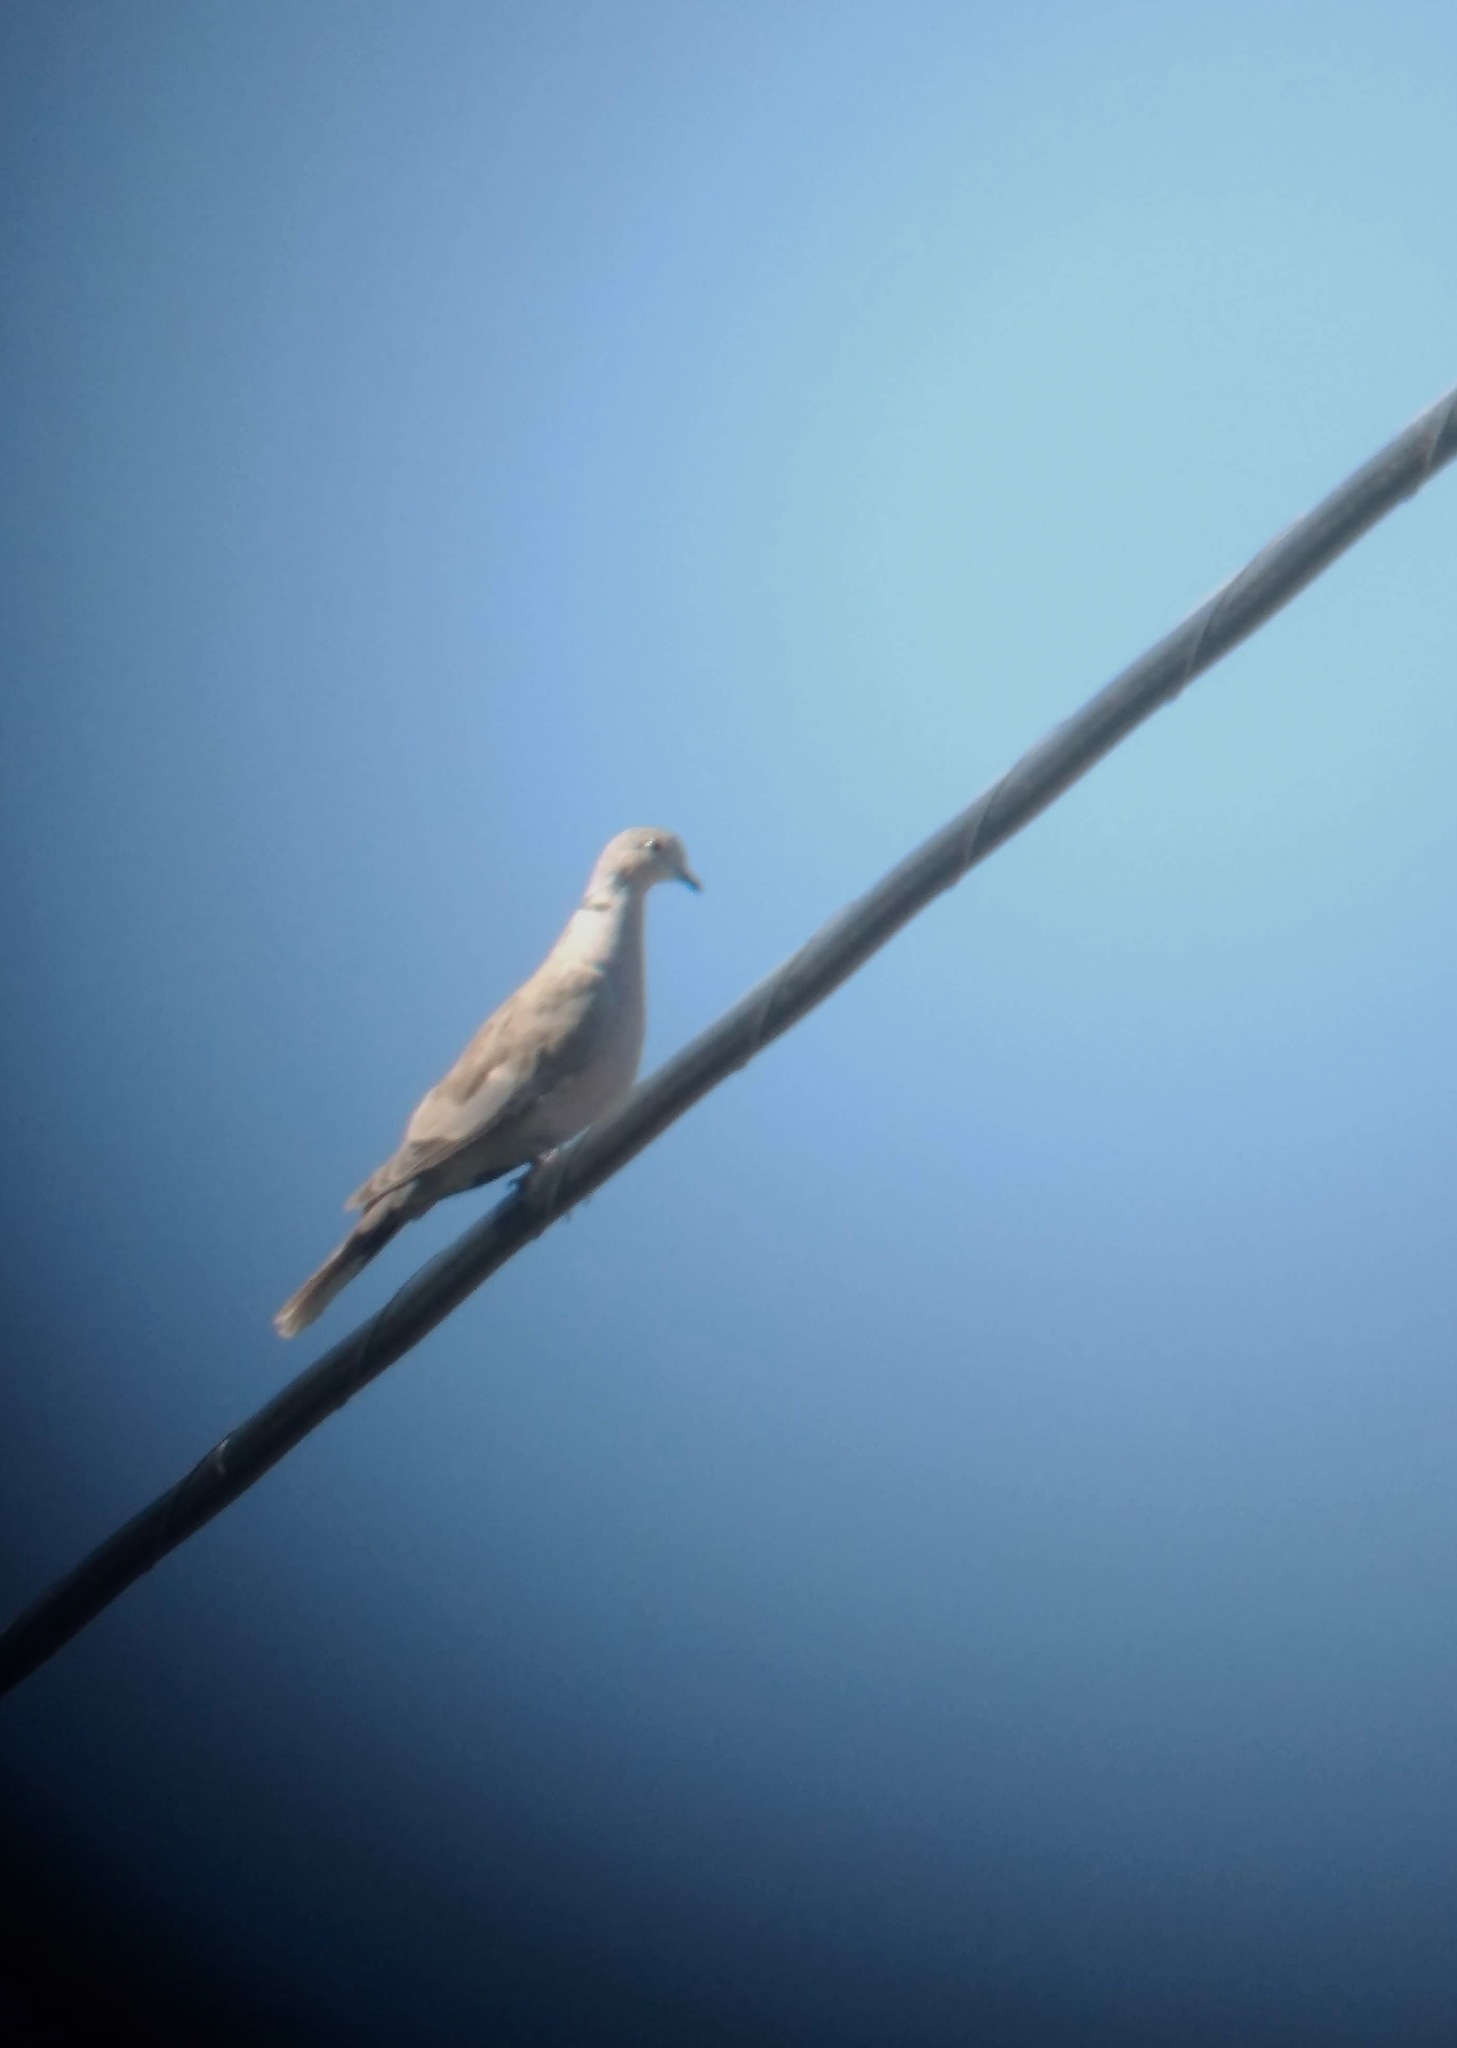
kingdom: Animalia
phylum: Chordata
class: Aves
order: Columbiformes
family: Columbidae
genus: Streptopelia
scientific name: Streptopelia decaocto
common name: Eurasian collared dove
